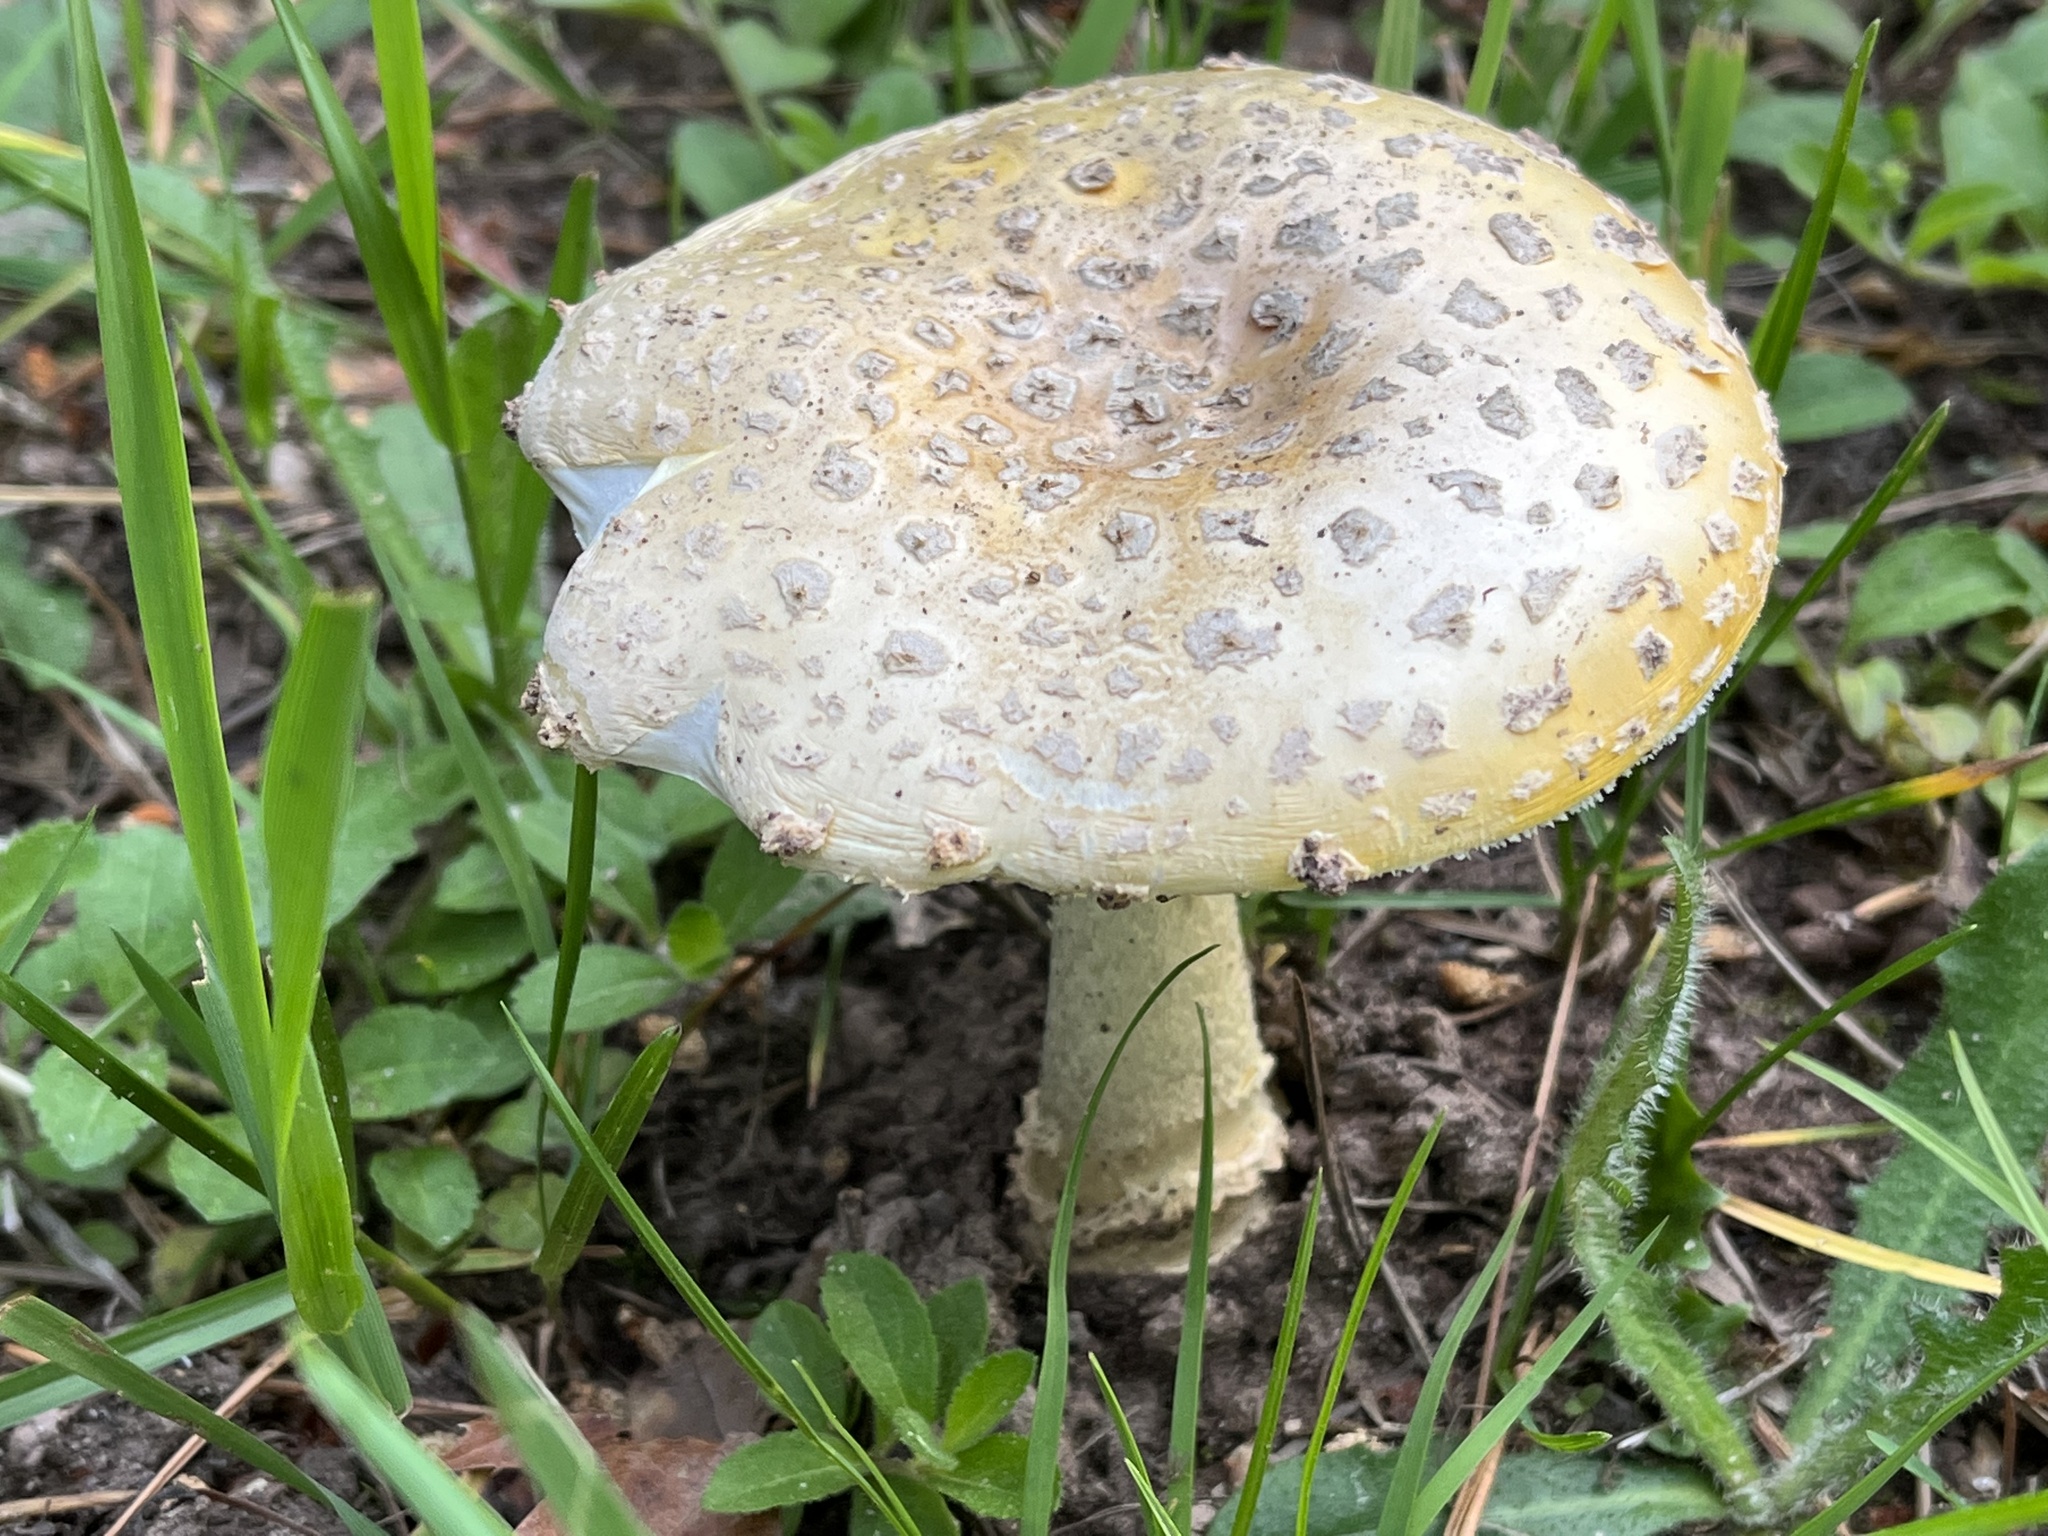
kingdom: Fungi
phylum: Basidiomycota
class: Agaricomycetes
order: Agaricales
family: Amanitaceae
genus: Amanita
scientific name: Amanita muscaria
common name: Fly agaric
